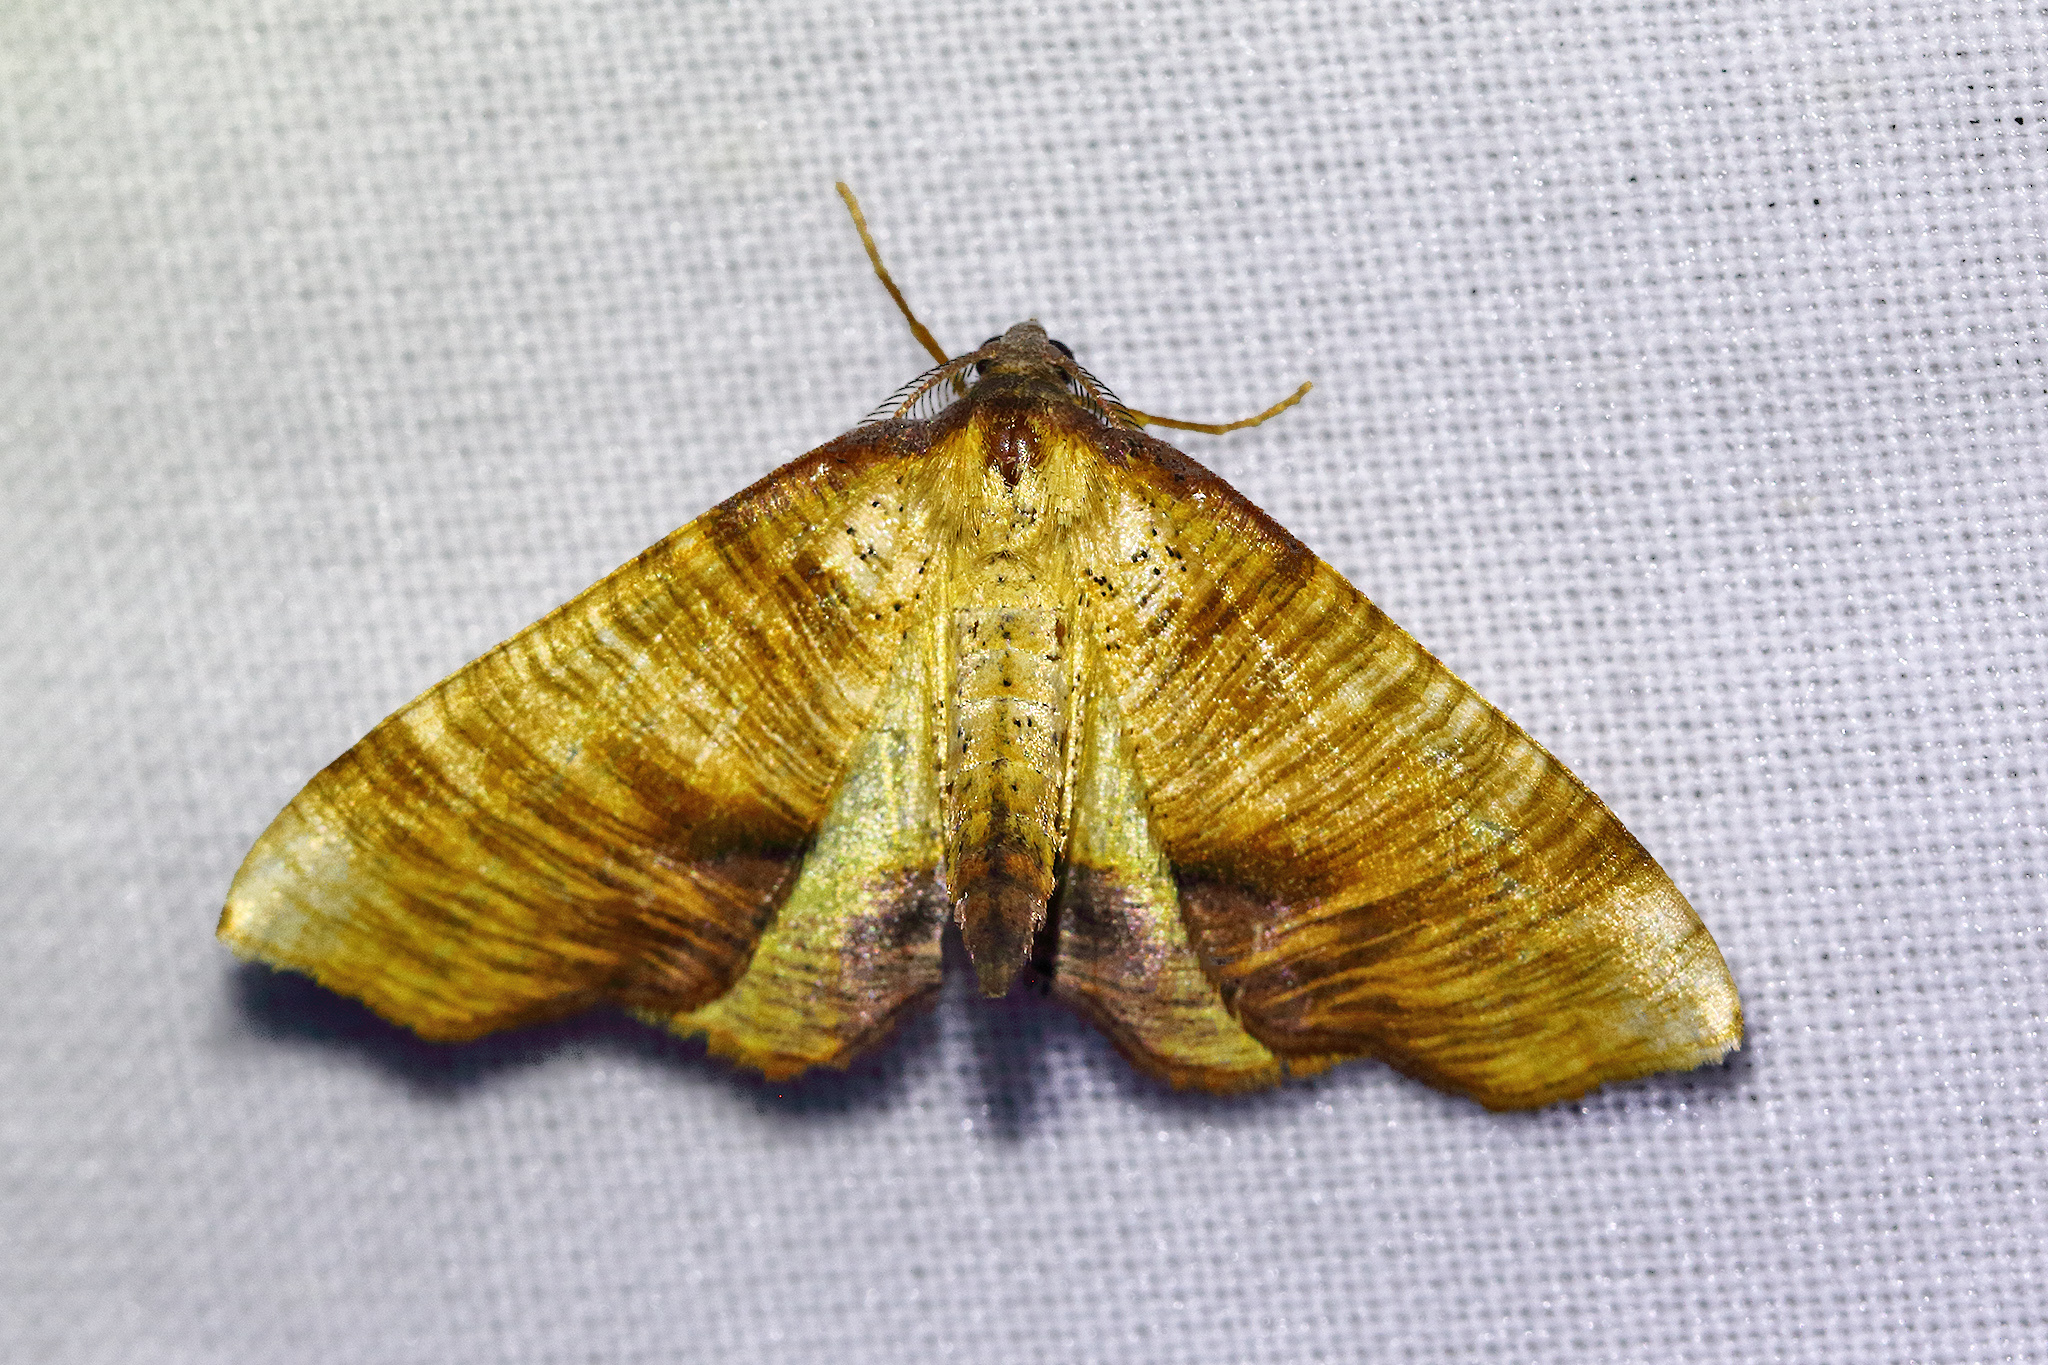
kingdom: Animalia
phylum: Arthropoda
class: Insecta
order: Lepidoptera
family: Geometridae
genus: Plagodis
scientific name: Plagodis dolabraria
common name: Scorched wing
